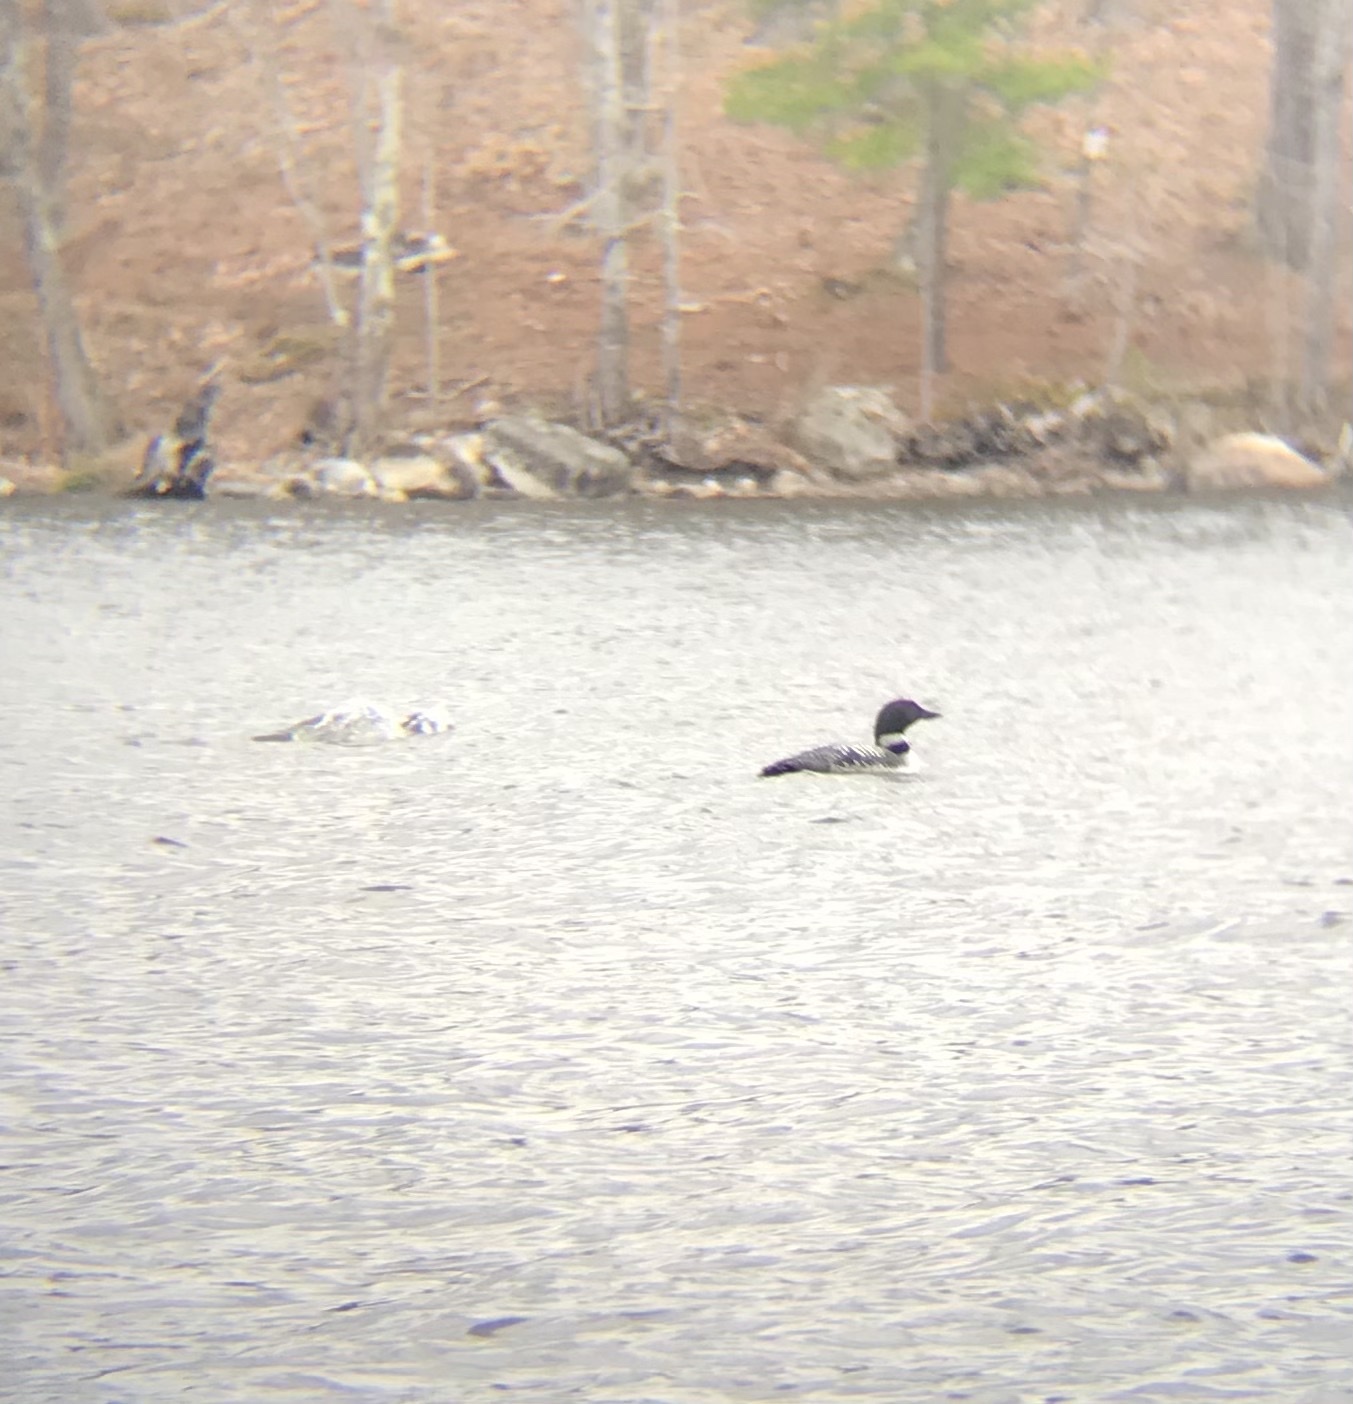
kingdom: Animalia
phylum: Chordata
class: Aves
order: Gaviiformes
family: Gaviidae
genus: Gavia
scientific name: Gavia immer
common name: Common loon
